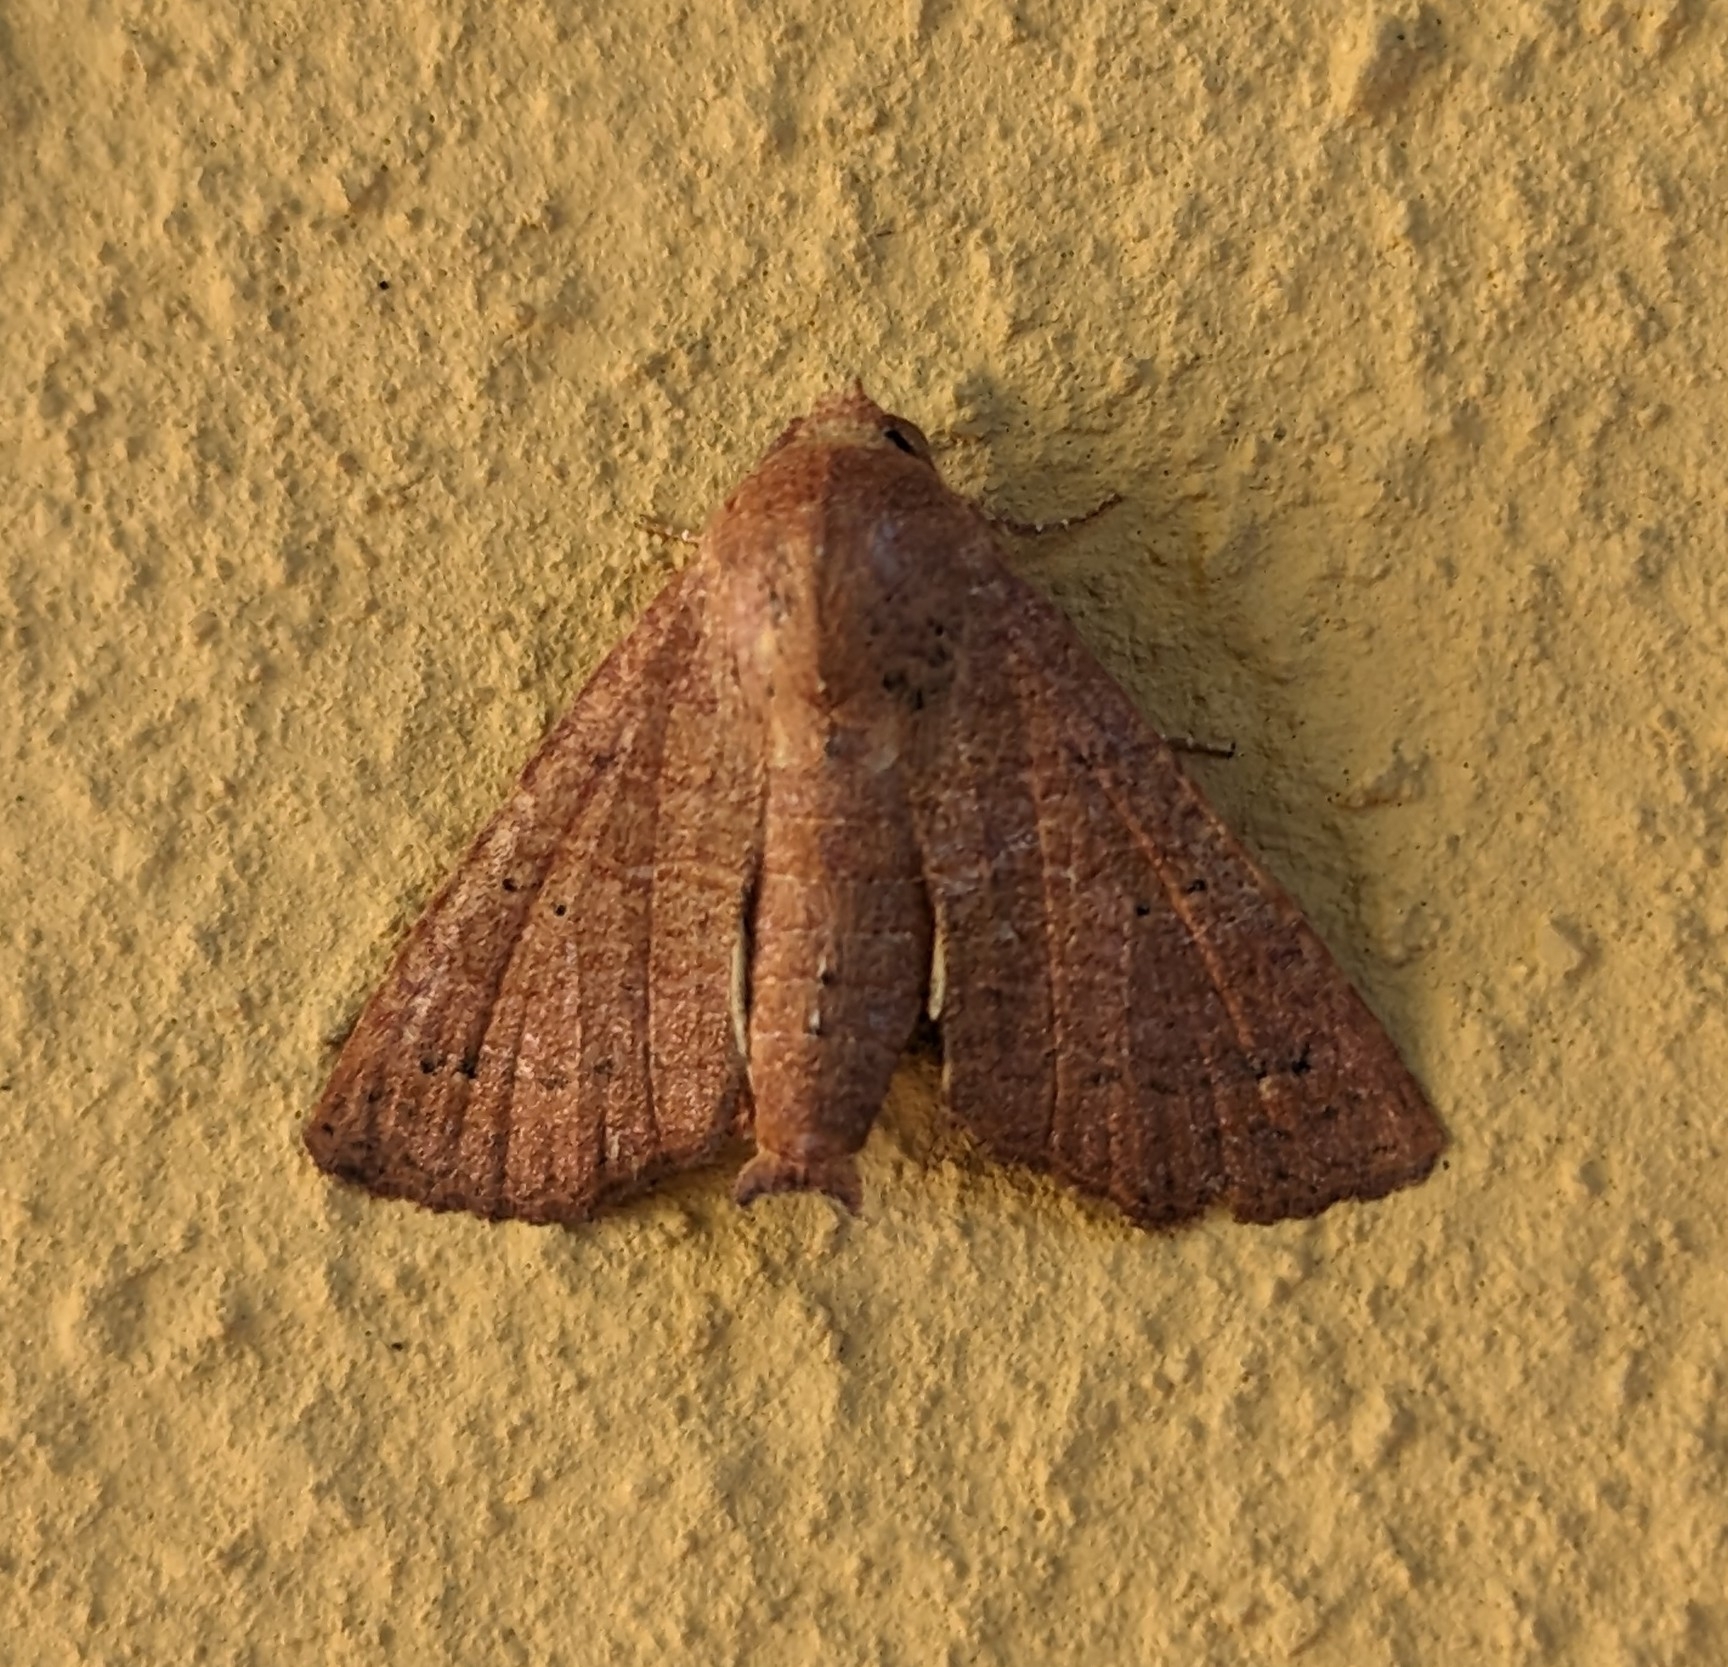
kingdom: Animalia
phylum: Arthropoda
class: Insecta
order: Lepidoptera
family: Euteliidae
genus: Eutelia
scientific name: Eutelia polychorda
